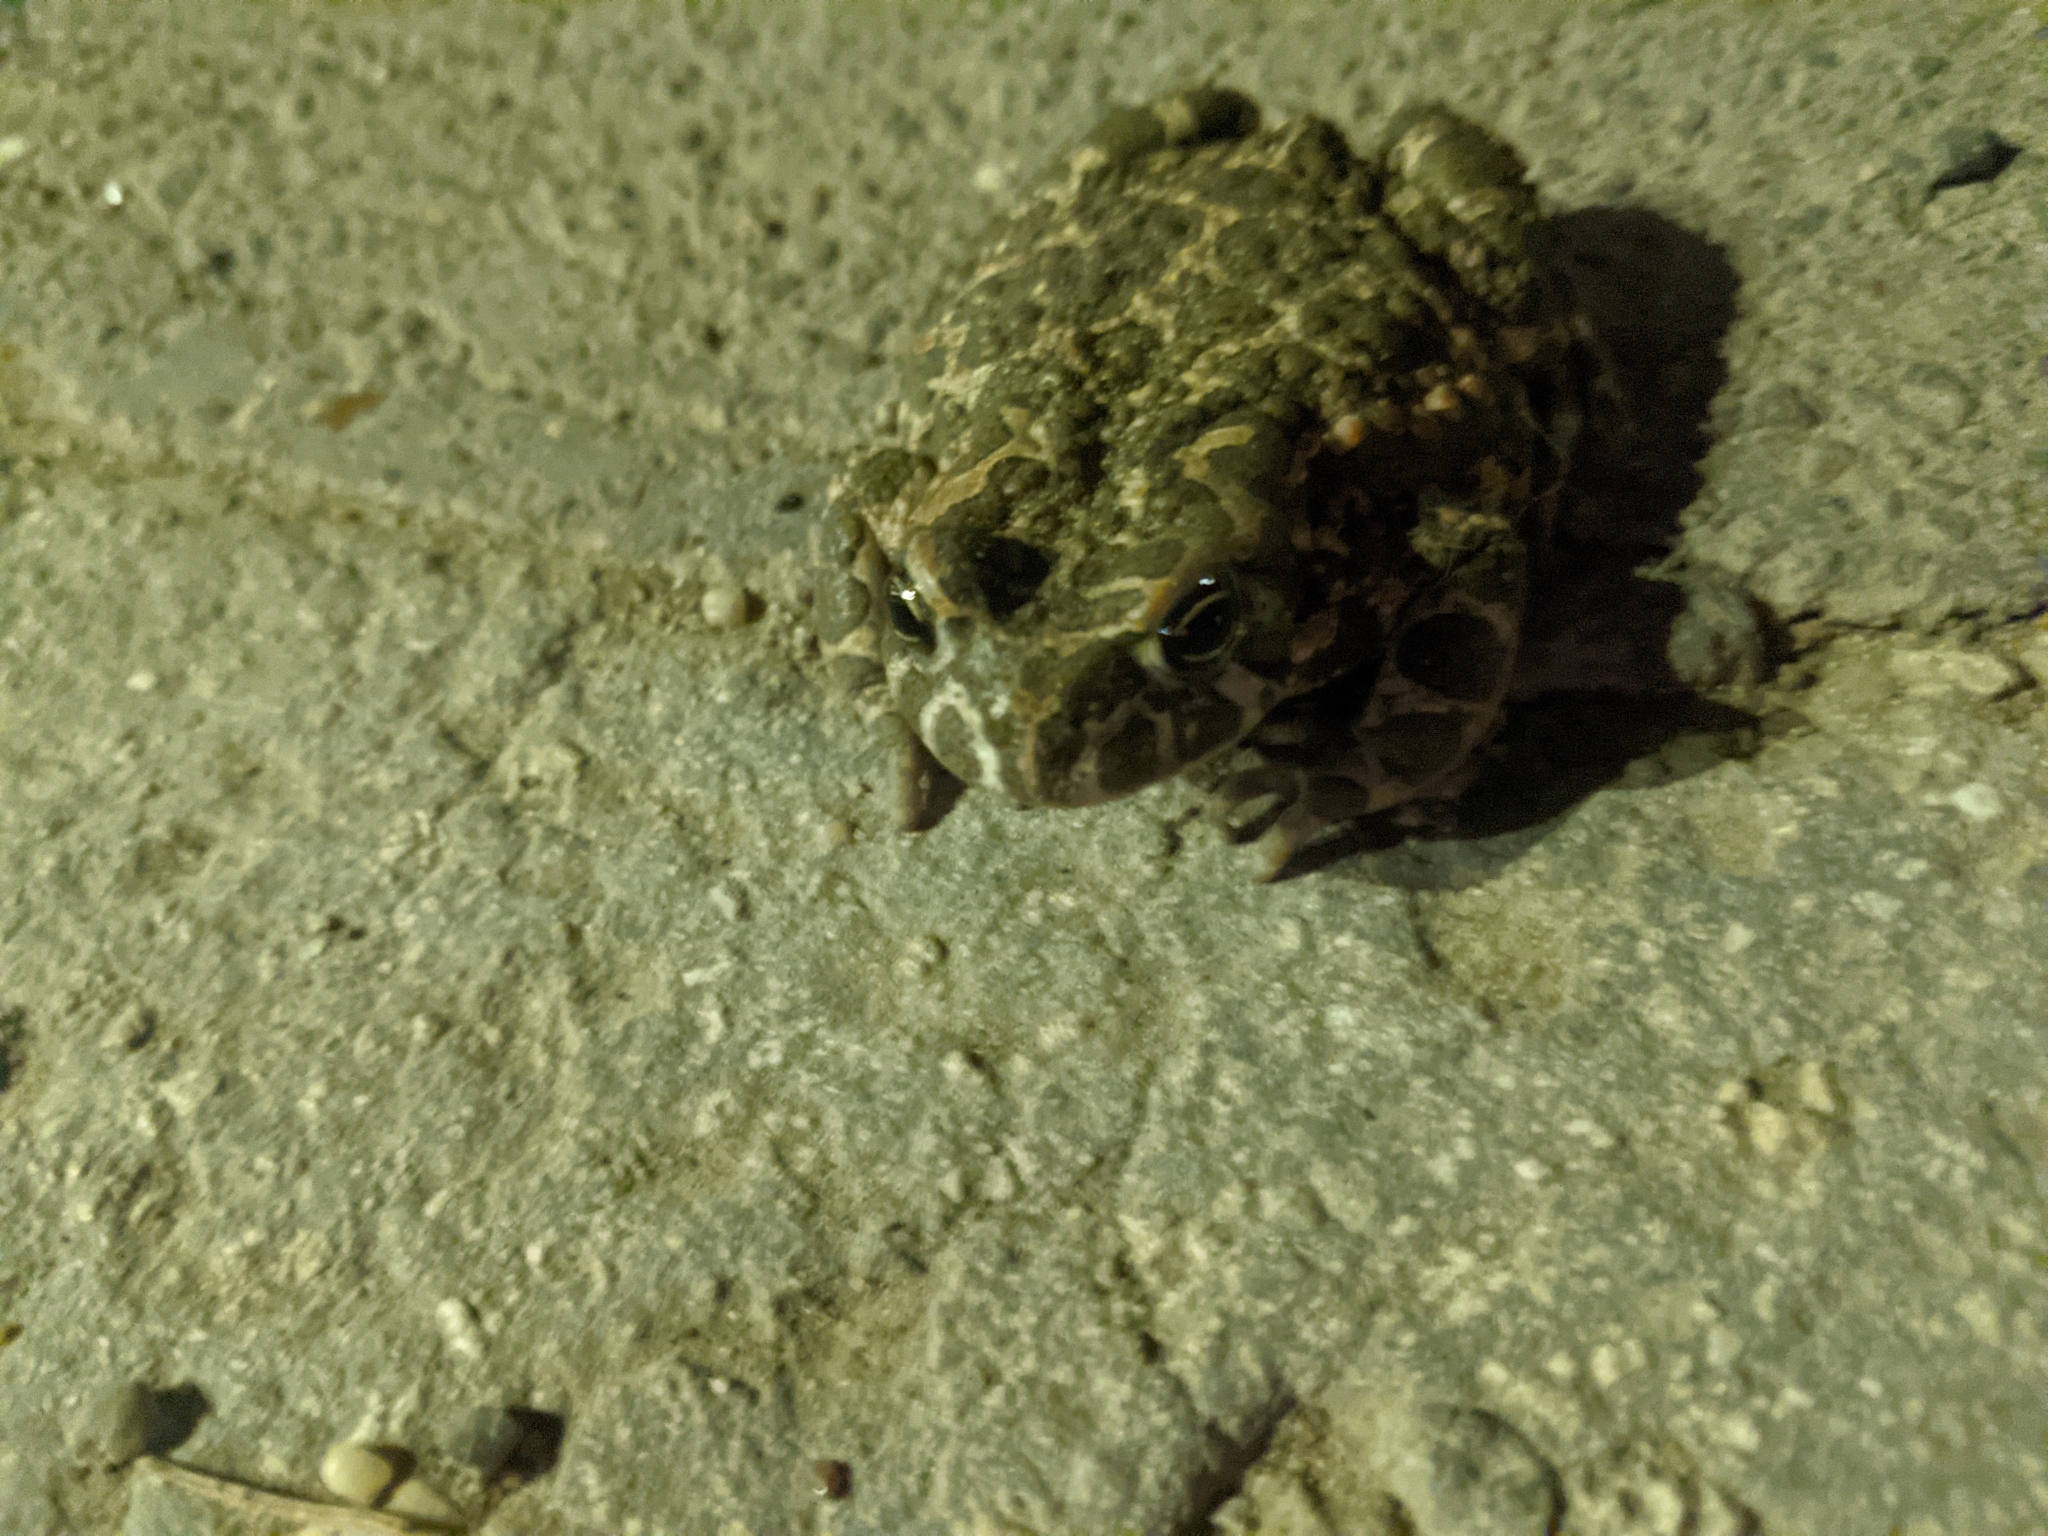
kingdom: Animalia
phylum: Chordata
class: Amphibia
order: Anura
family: Bufonidae
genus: Bufotes
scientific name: Bufotes viridis
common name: European green toad
